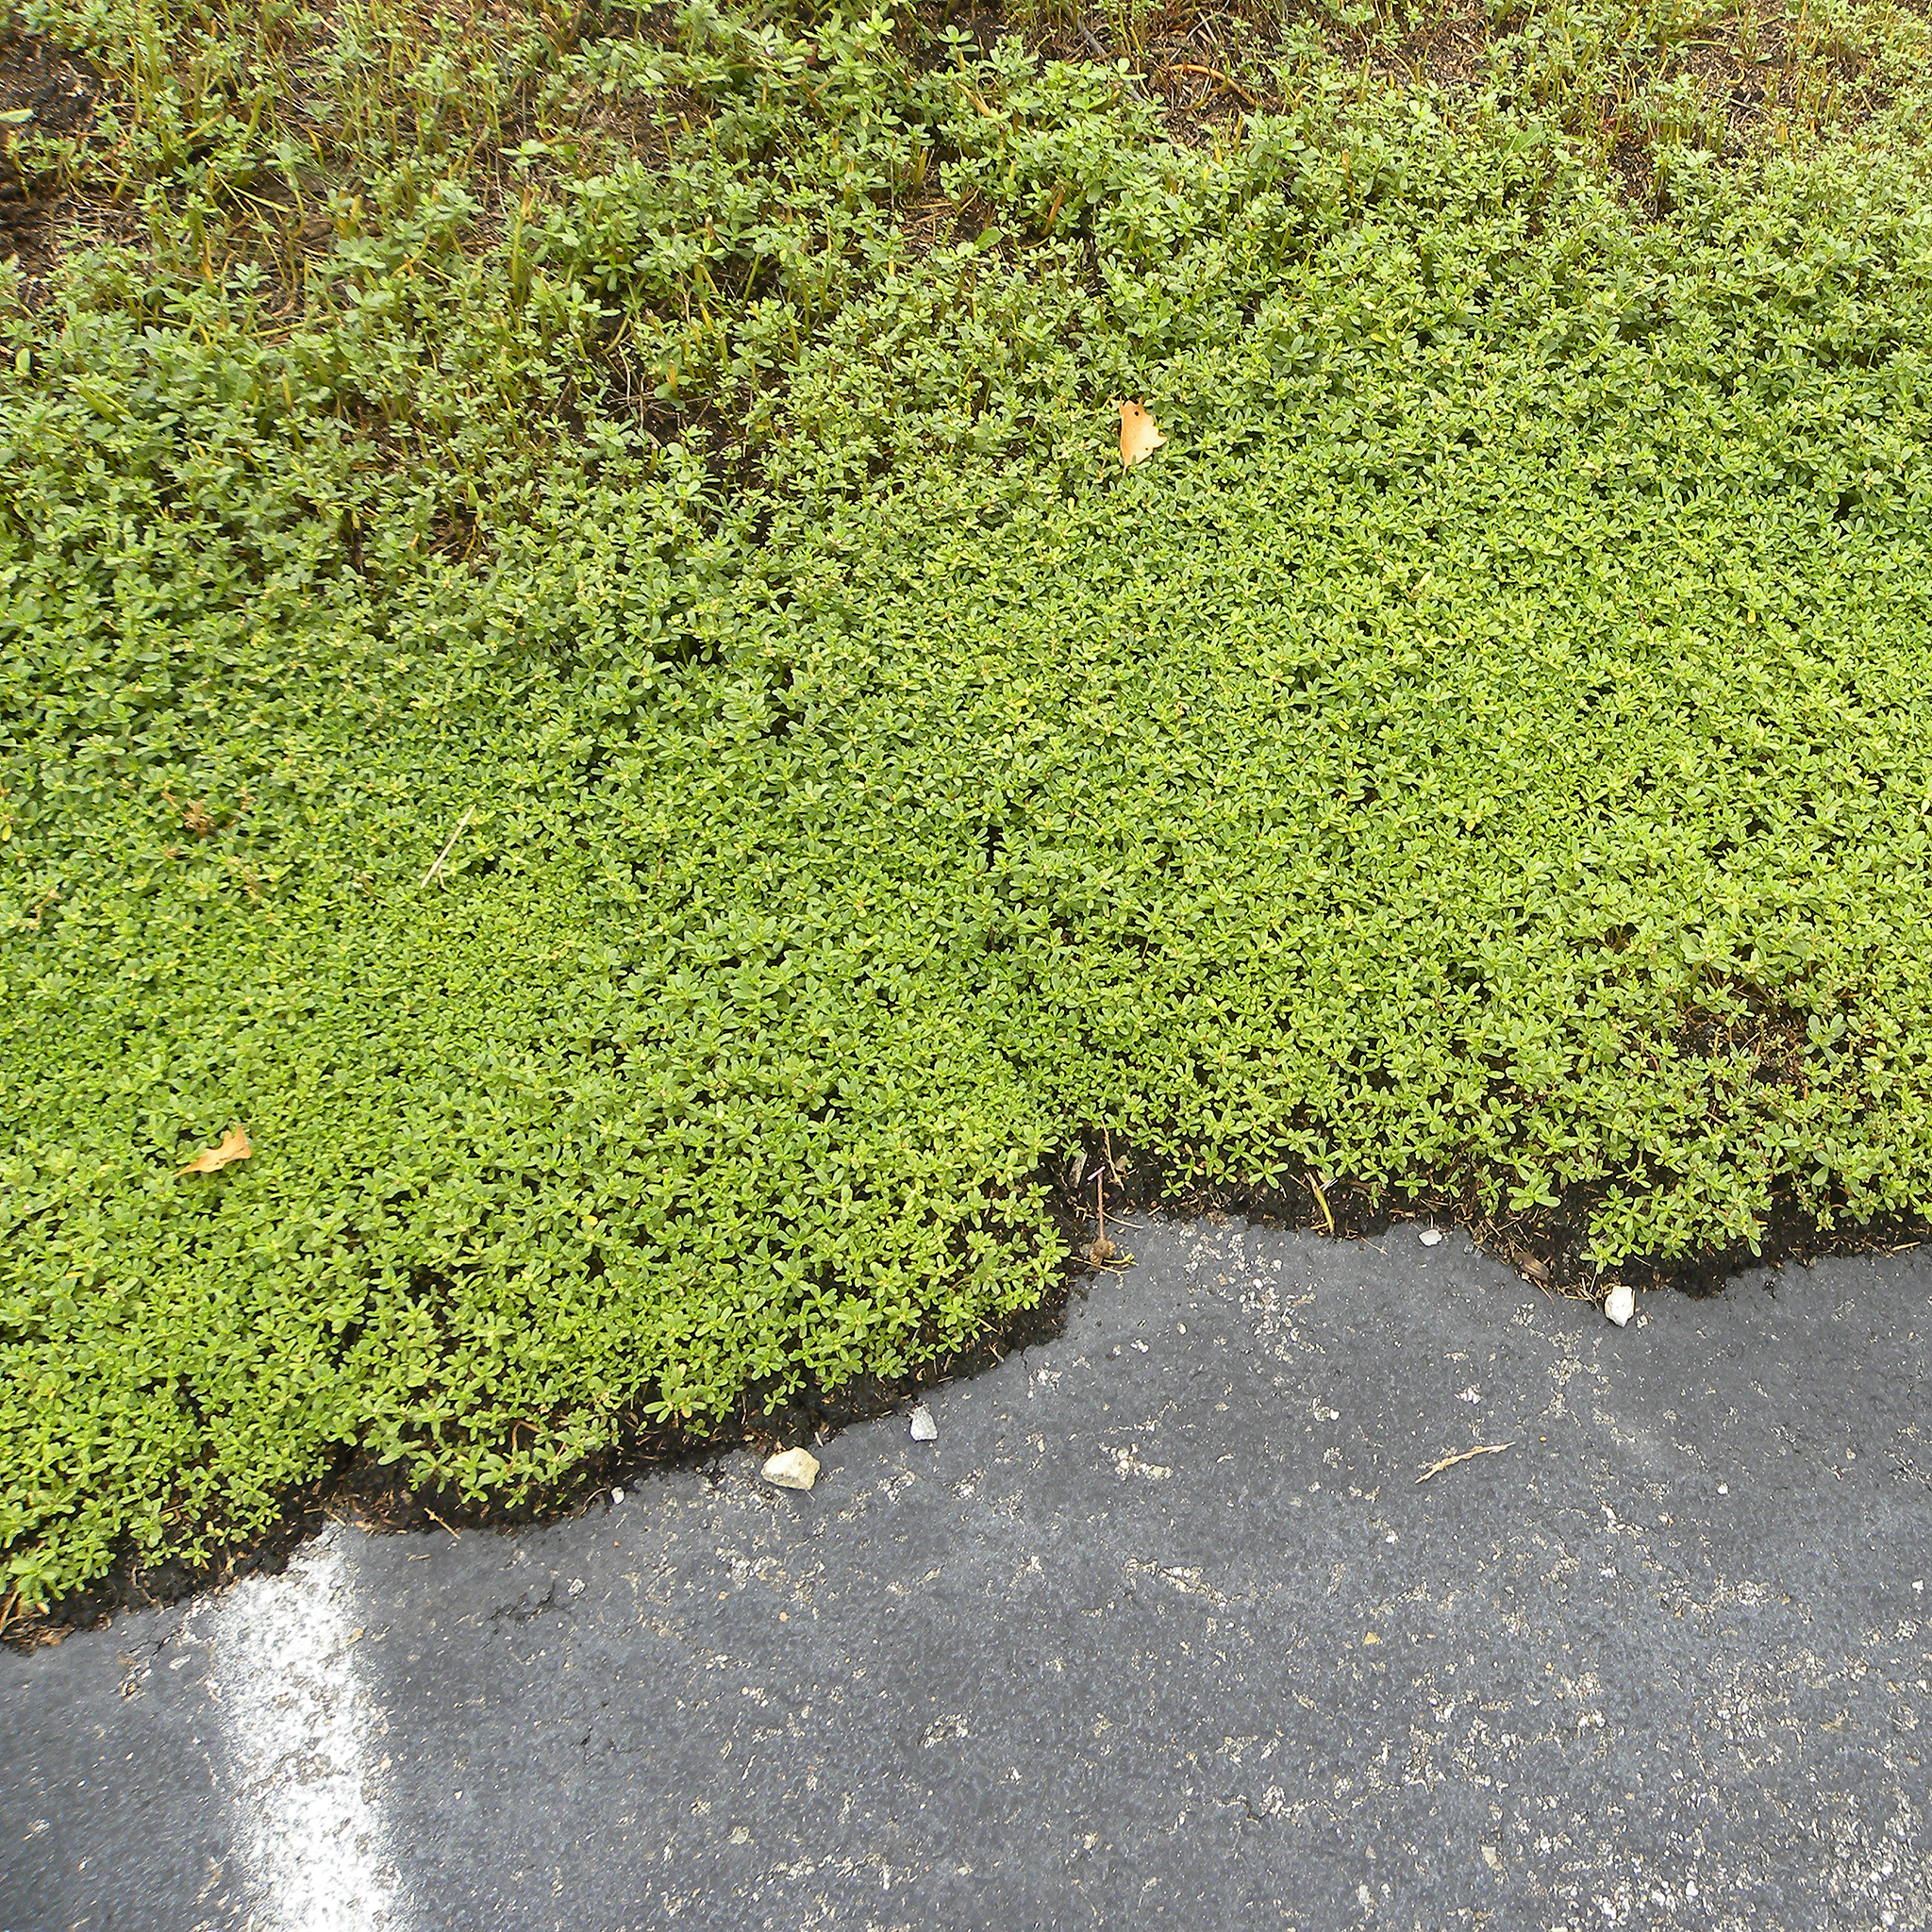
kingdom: Plantae
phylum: Tracheophyta
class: Magnoliopsida
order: Caryophyllales
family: Portulacaceae
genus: Portulaca
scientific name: Portulaca oleracea
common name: Common purslane
